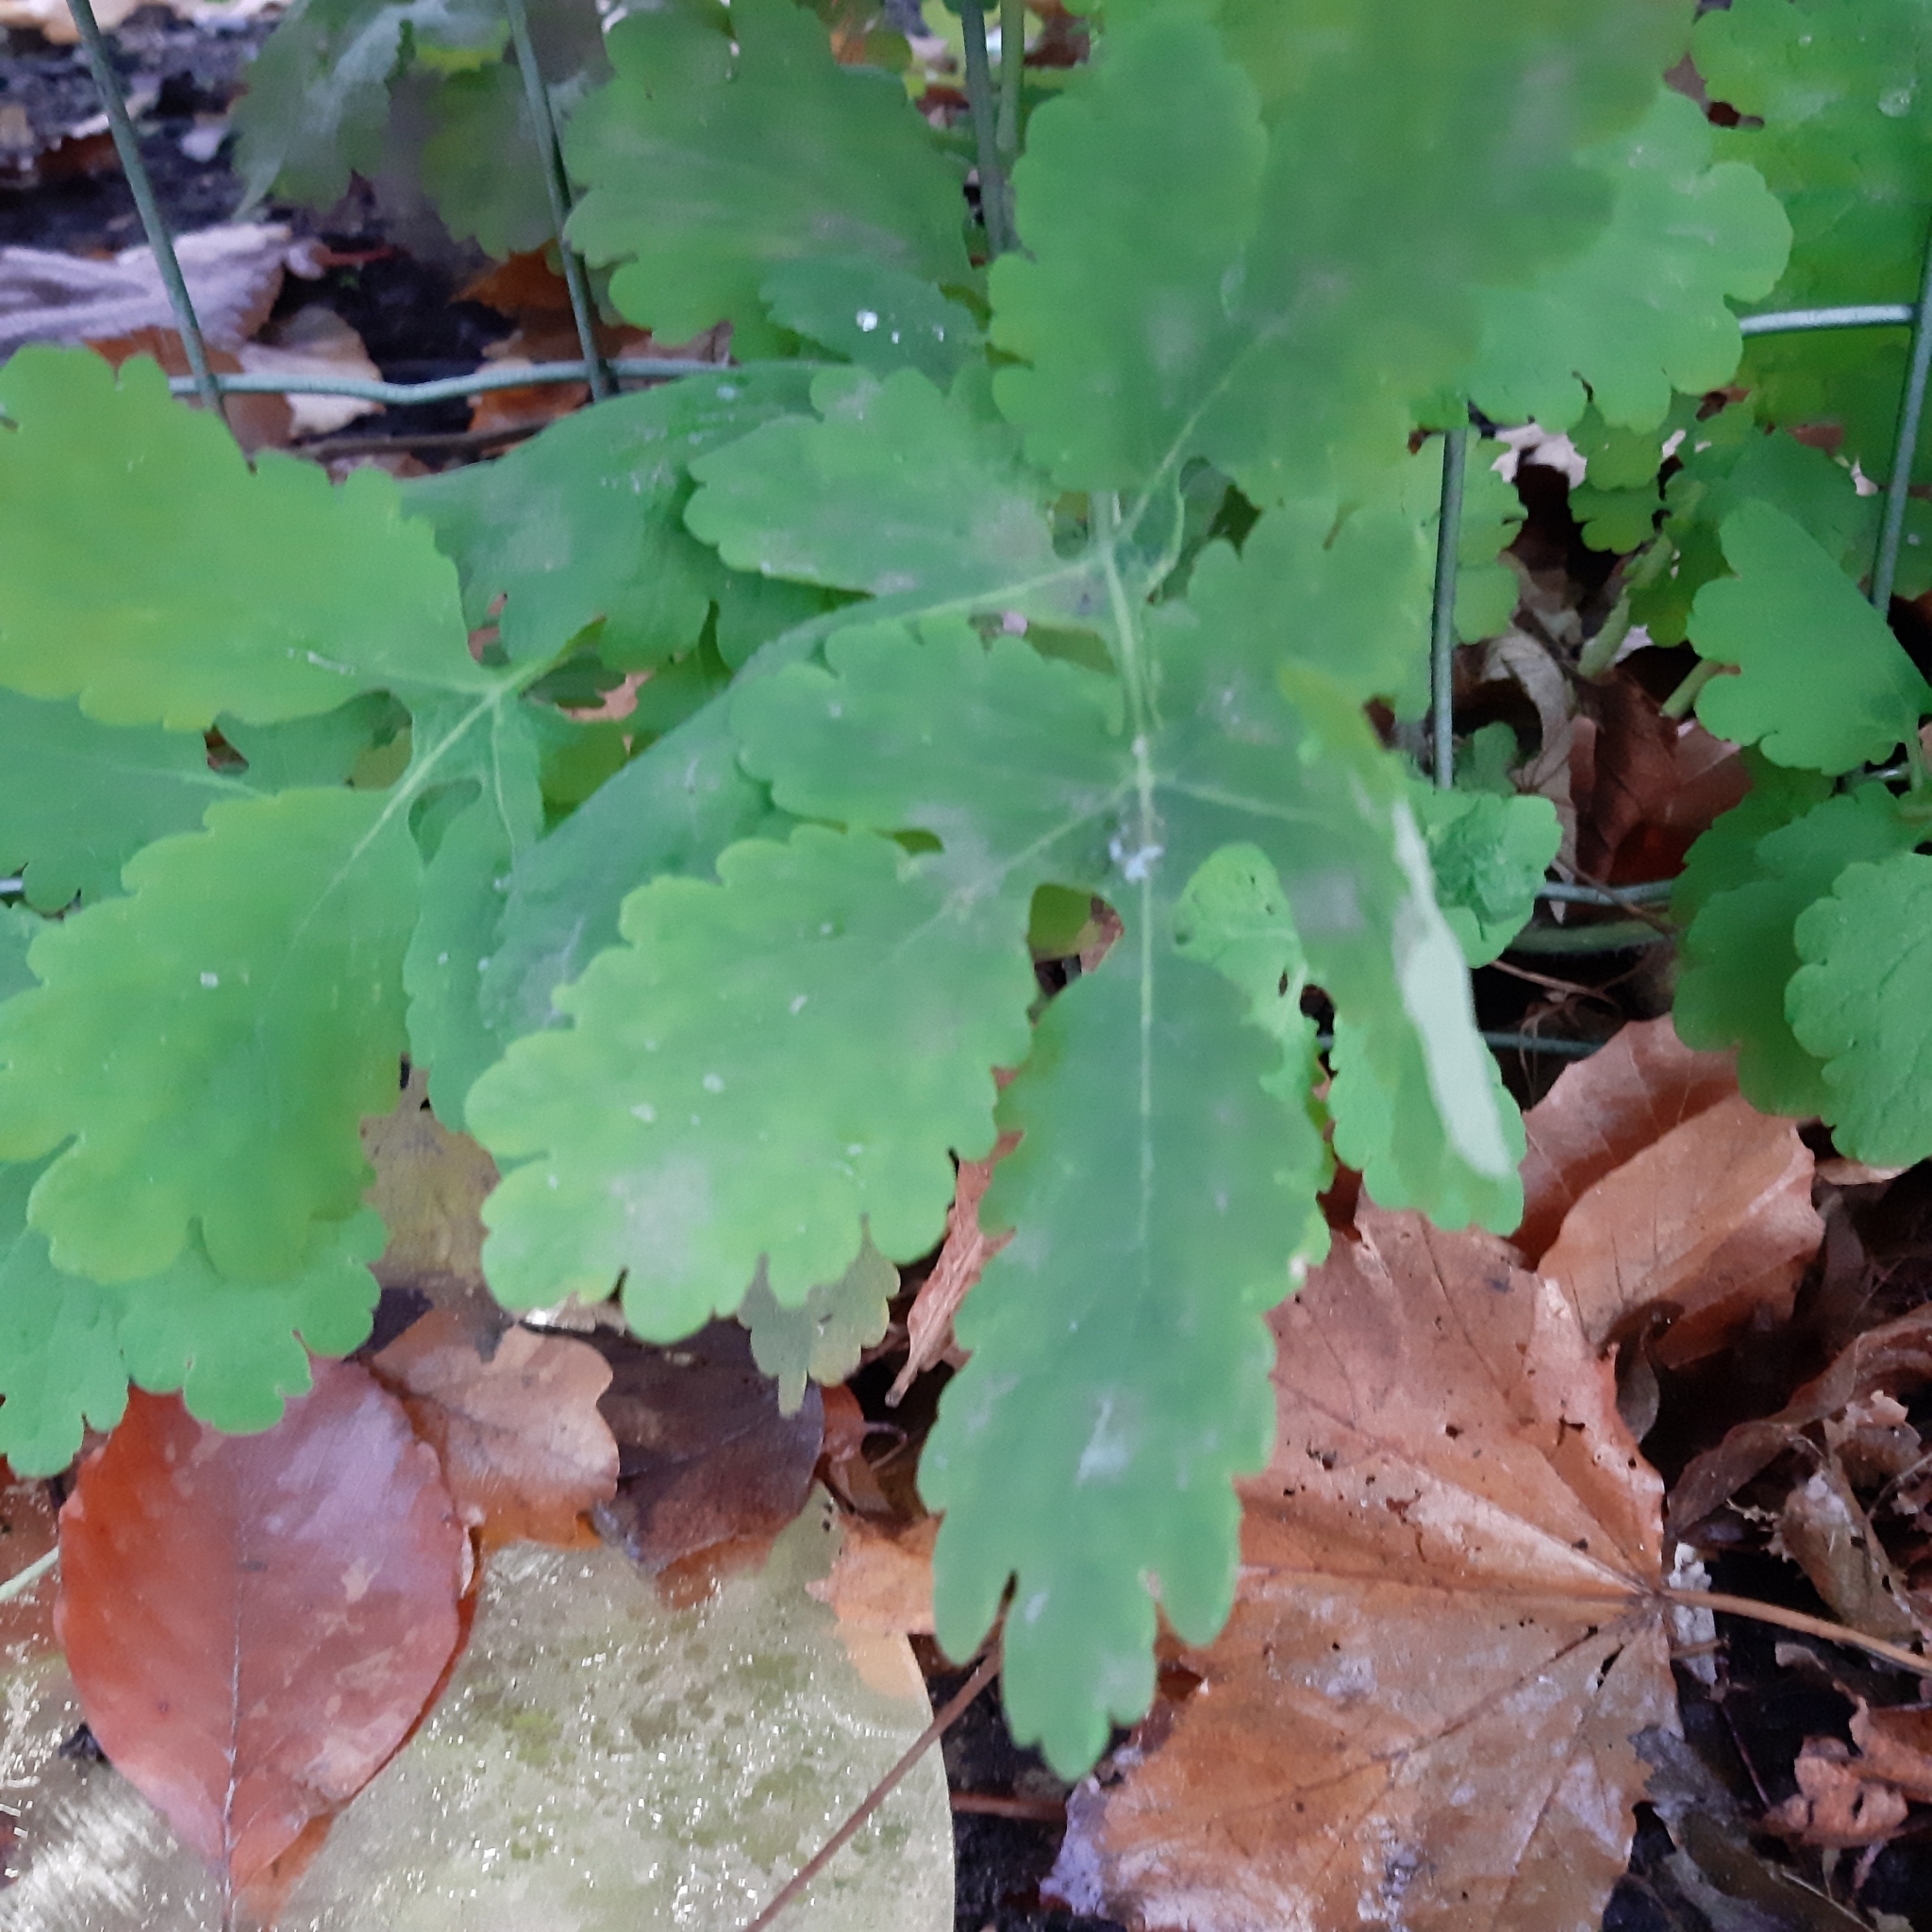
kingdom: Plantae
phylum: Tracheophyta
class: Magnoliopsida
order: Ranunculales
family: Papaveraceae
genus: Chelidonium
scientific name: Chelidonium majus
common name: Greater celandine
